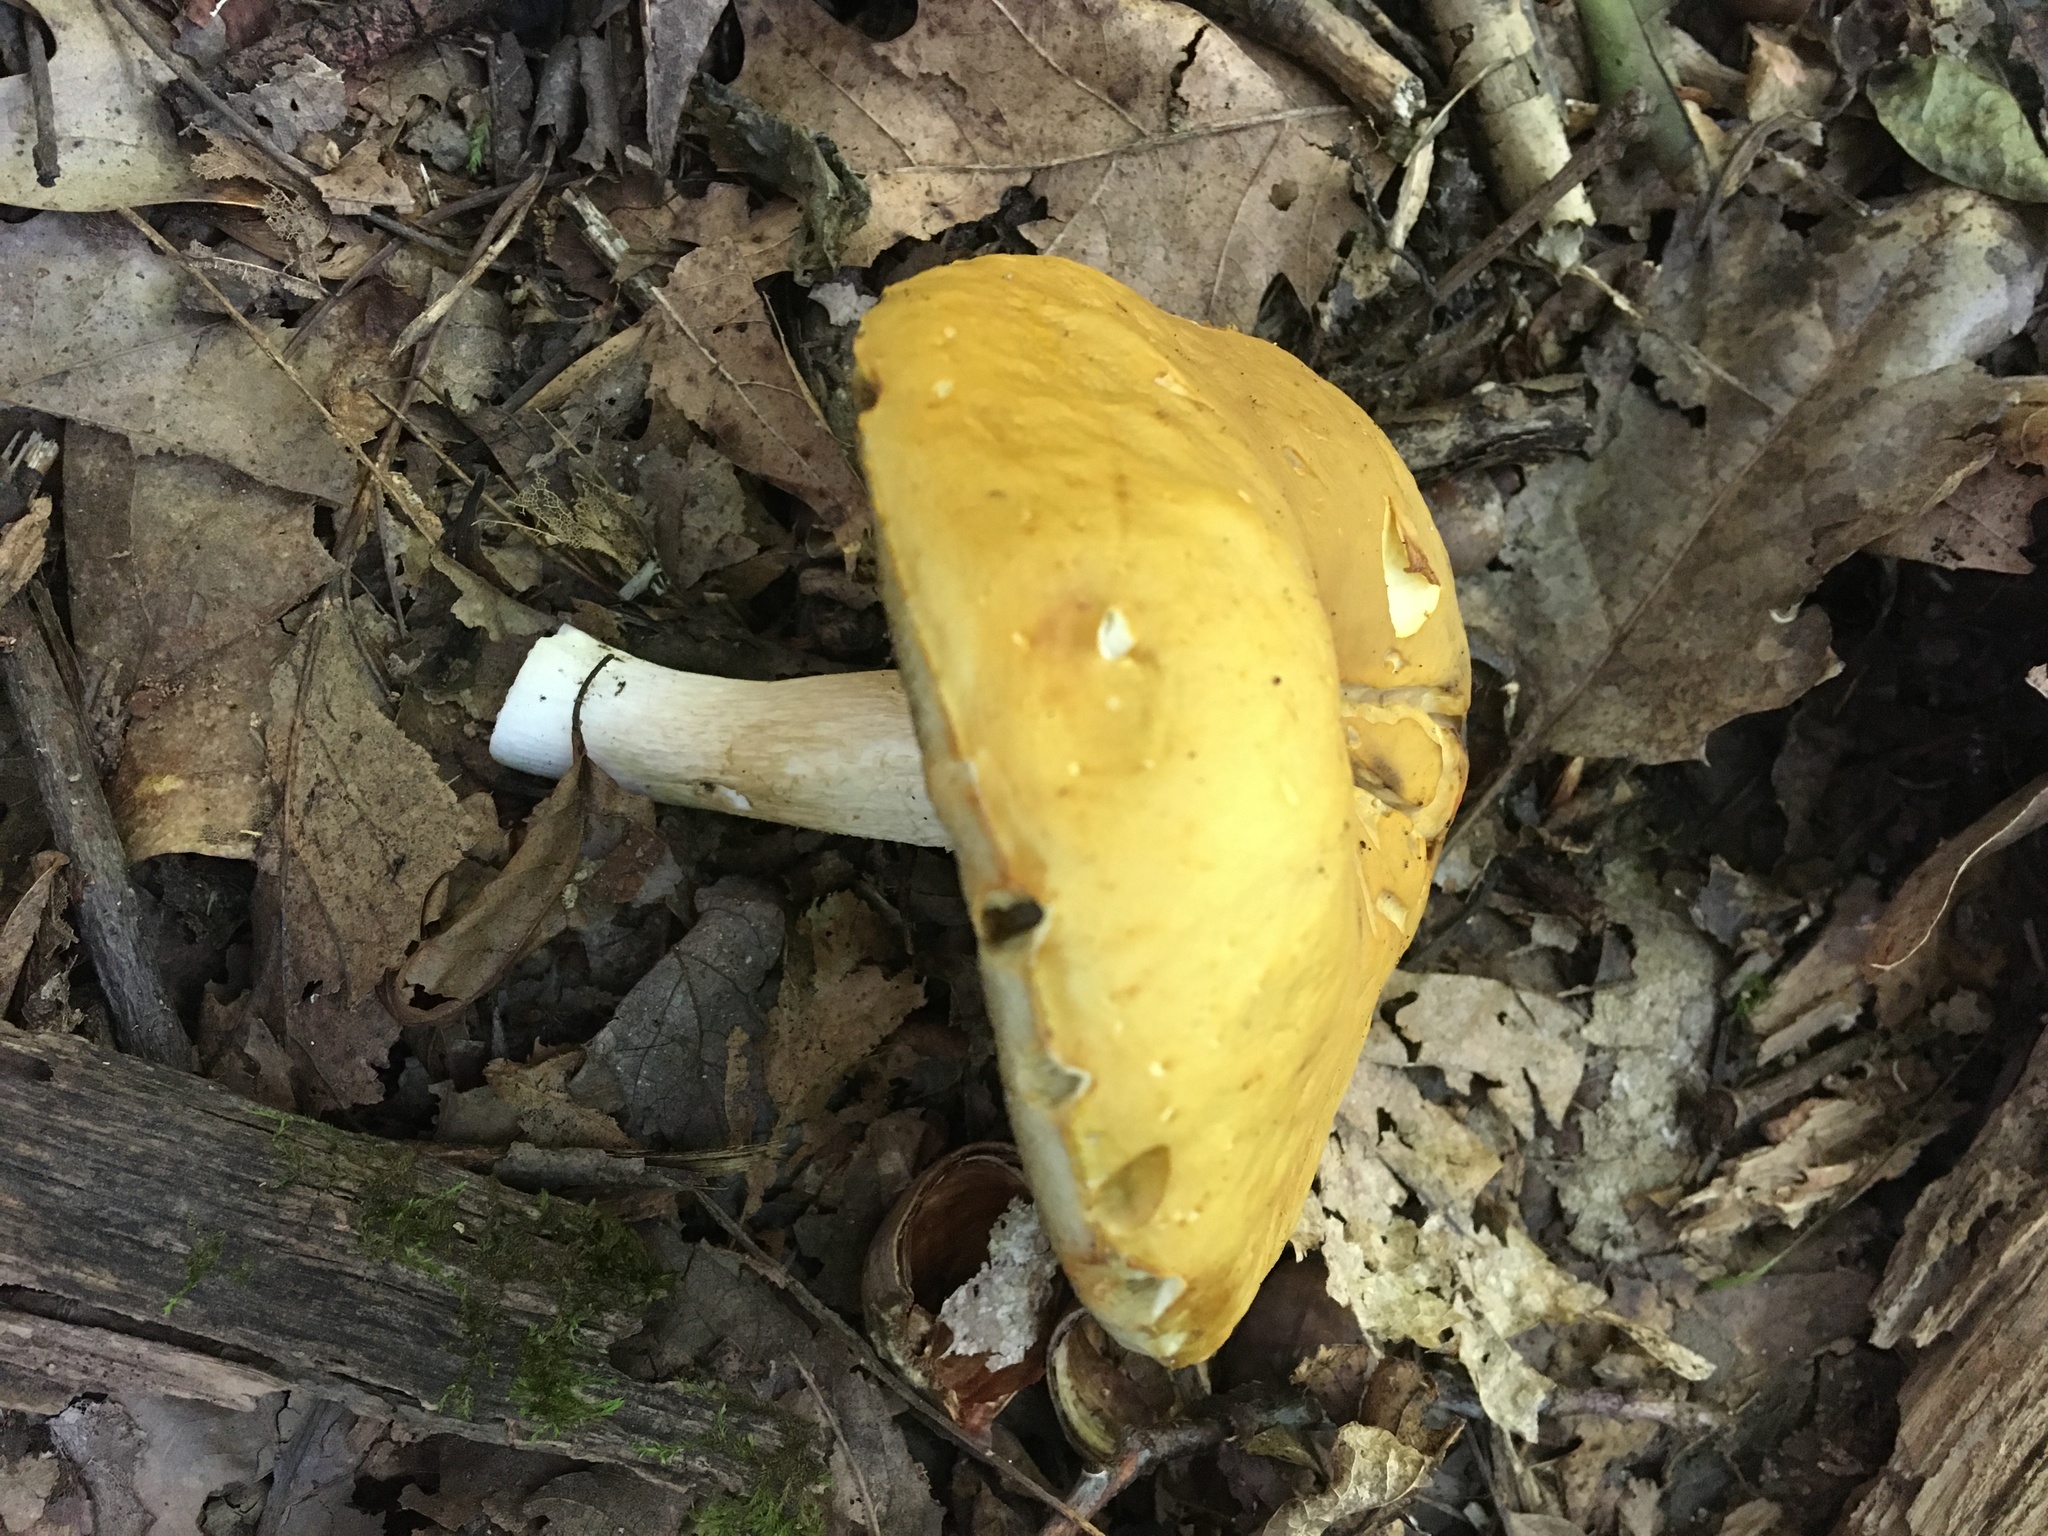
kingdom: Fungi
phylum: Basidiomycota
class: Agaricomycetes
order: Boletales
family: Boletaceae
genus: Boletus
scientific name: Boletus gertrudiae
